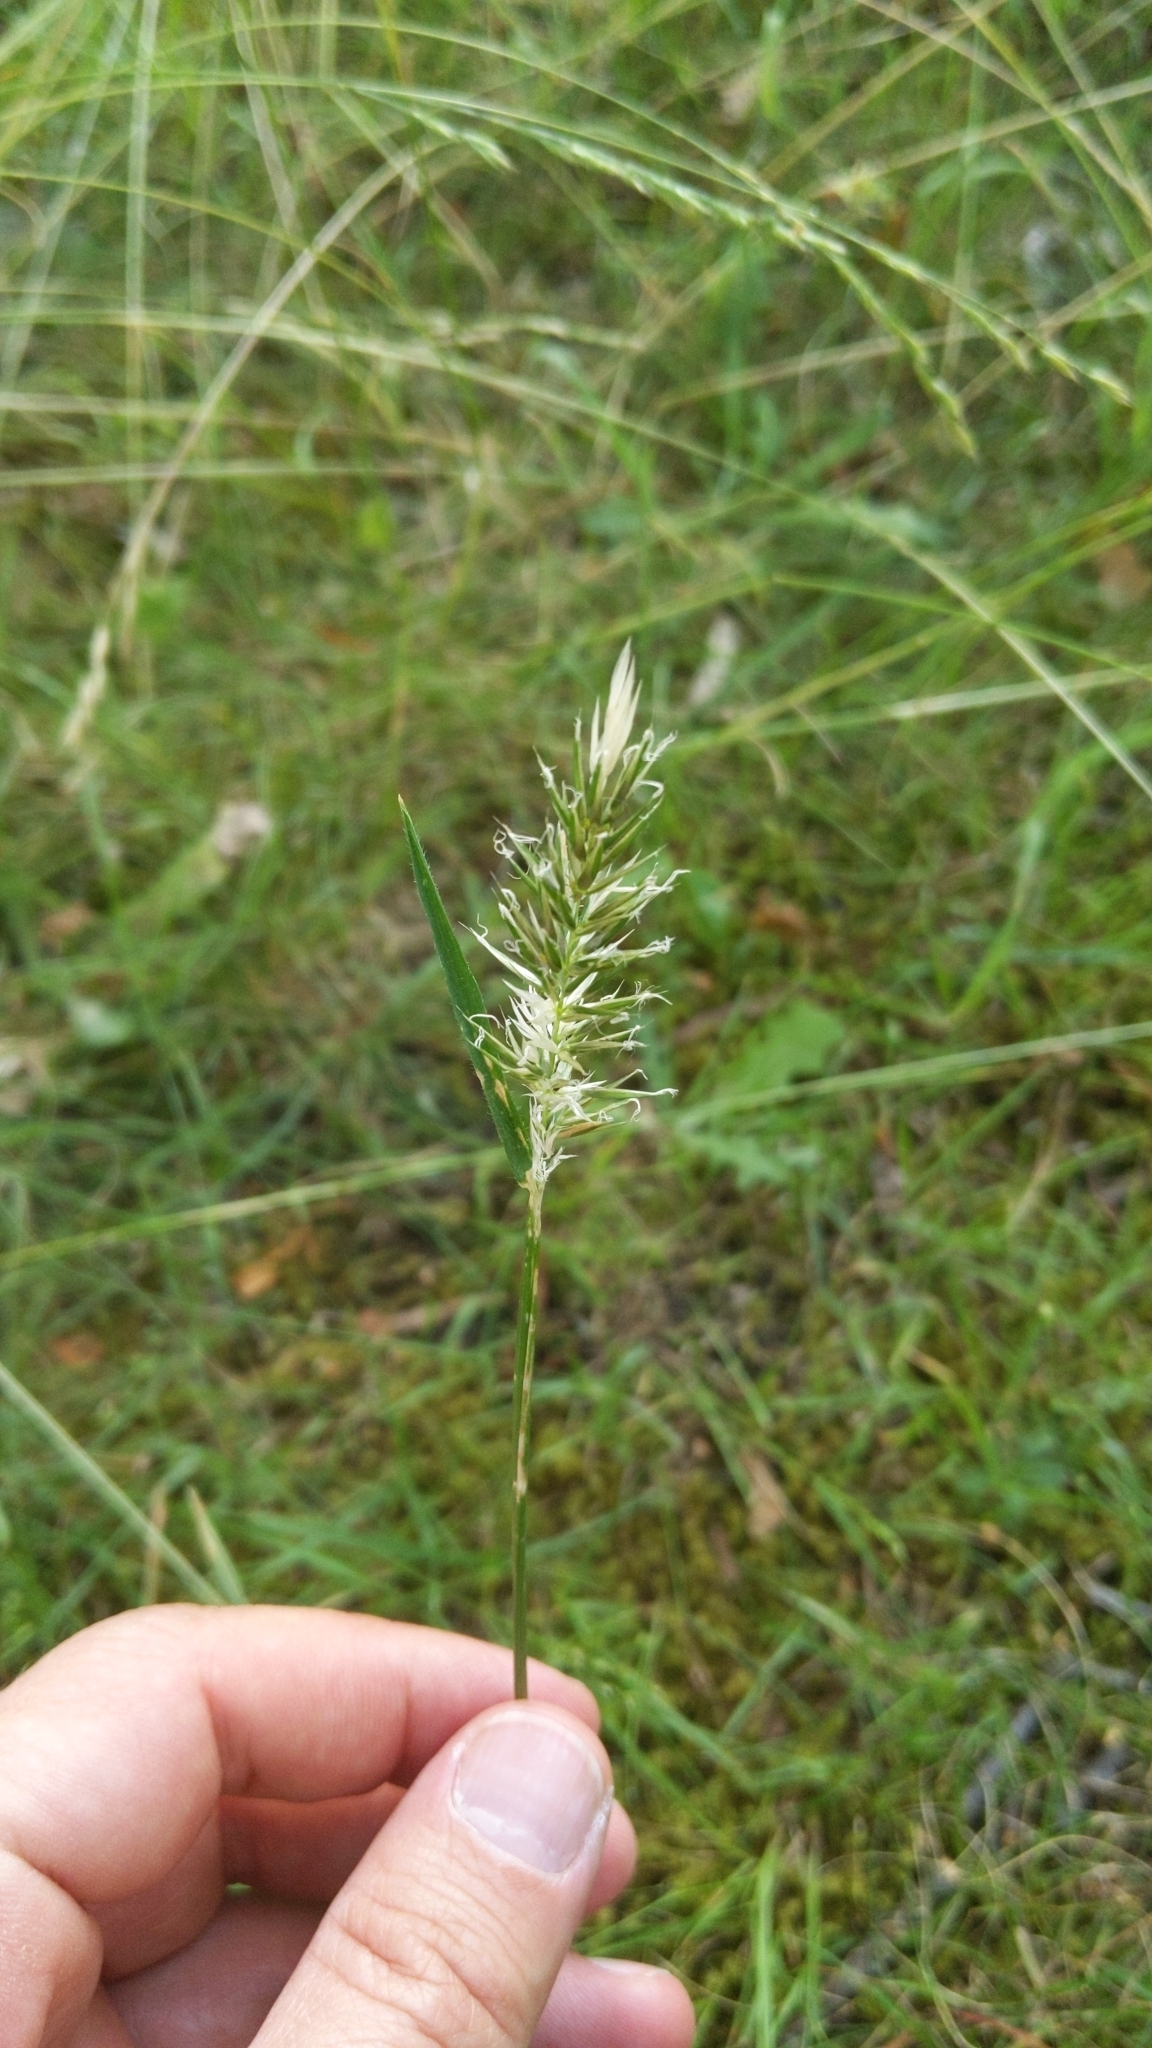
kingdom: Plantae
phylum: Tracheophyta
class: Liliopsida
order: Poales
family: Poaceae
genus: Anthoxanthum
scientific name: Anthoxanthum odoratum
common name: Sweet vernalgrass
